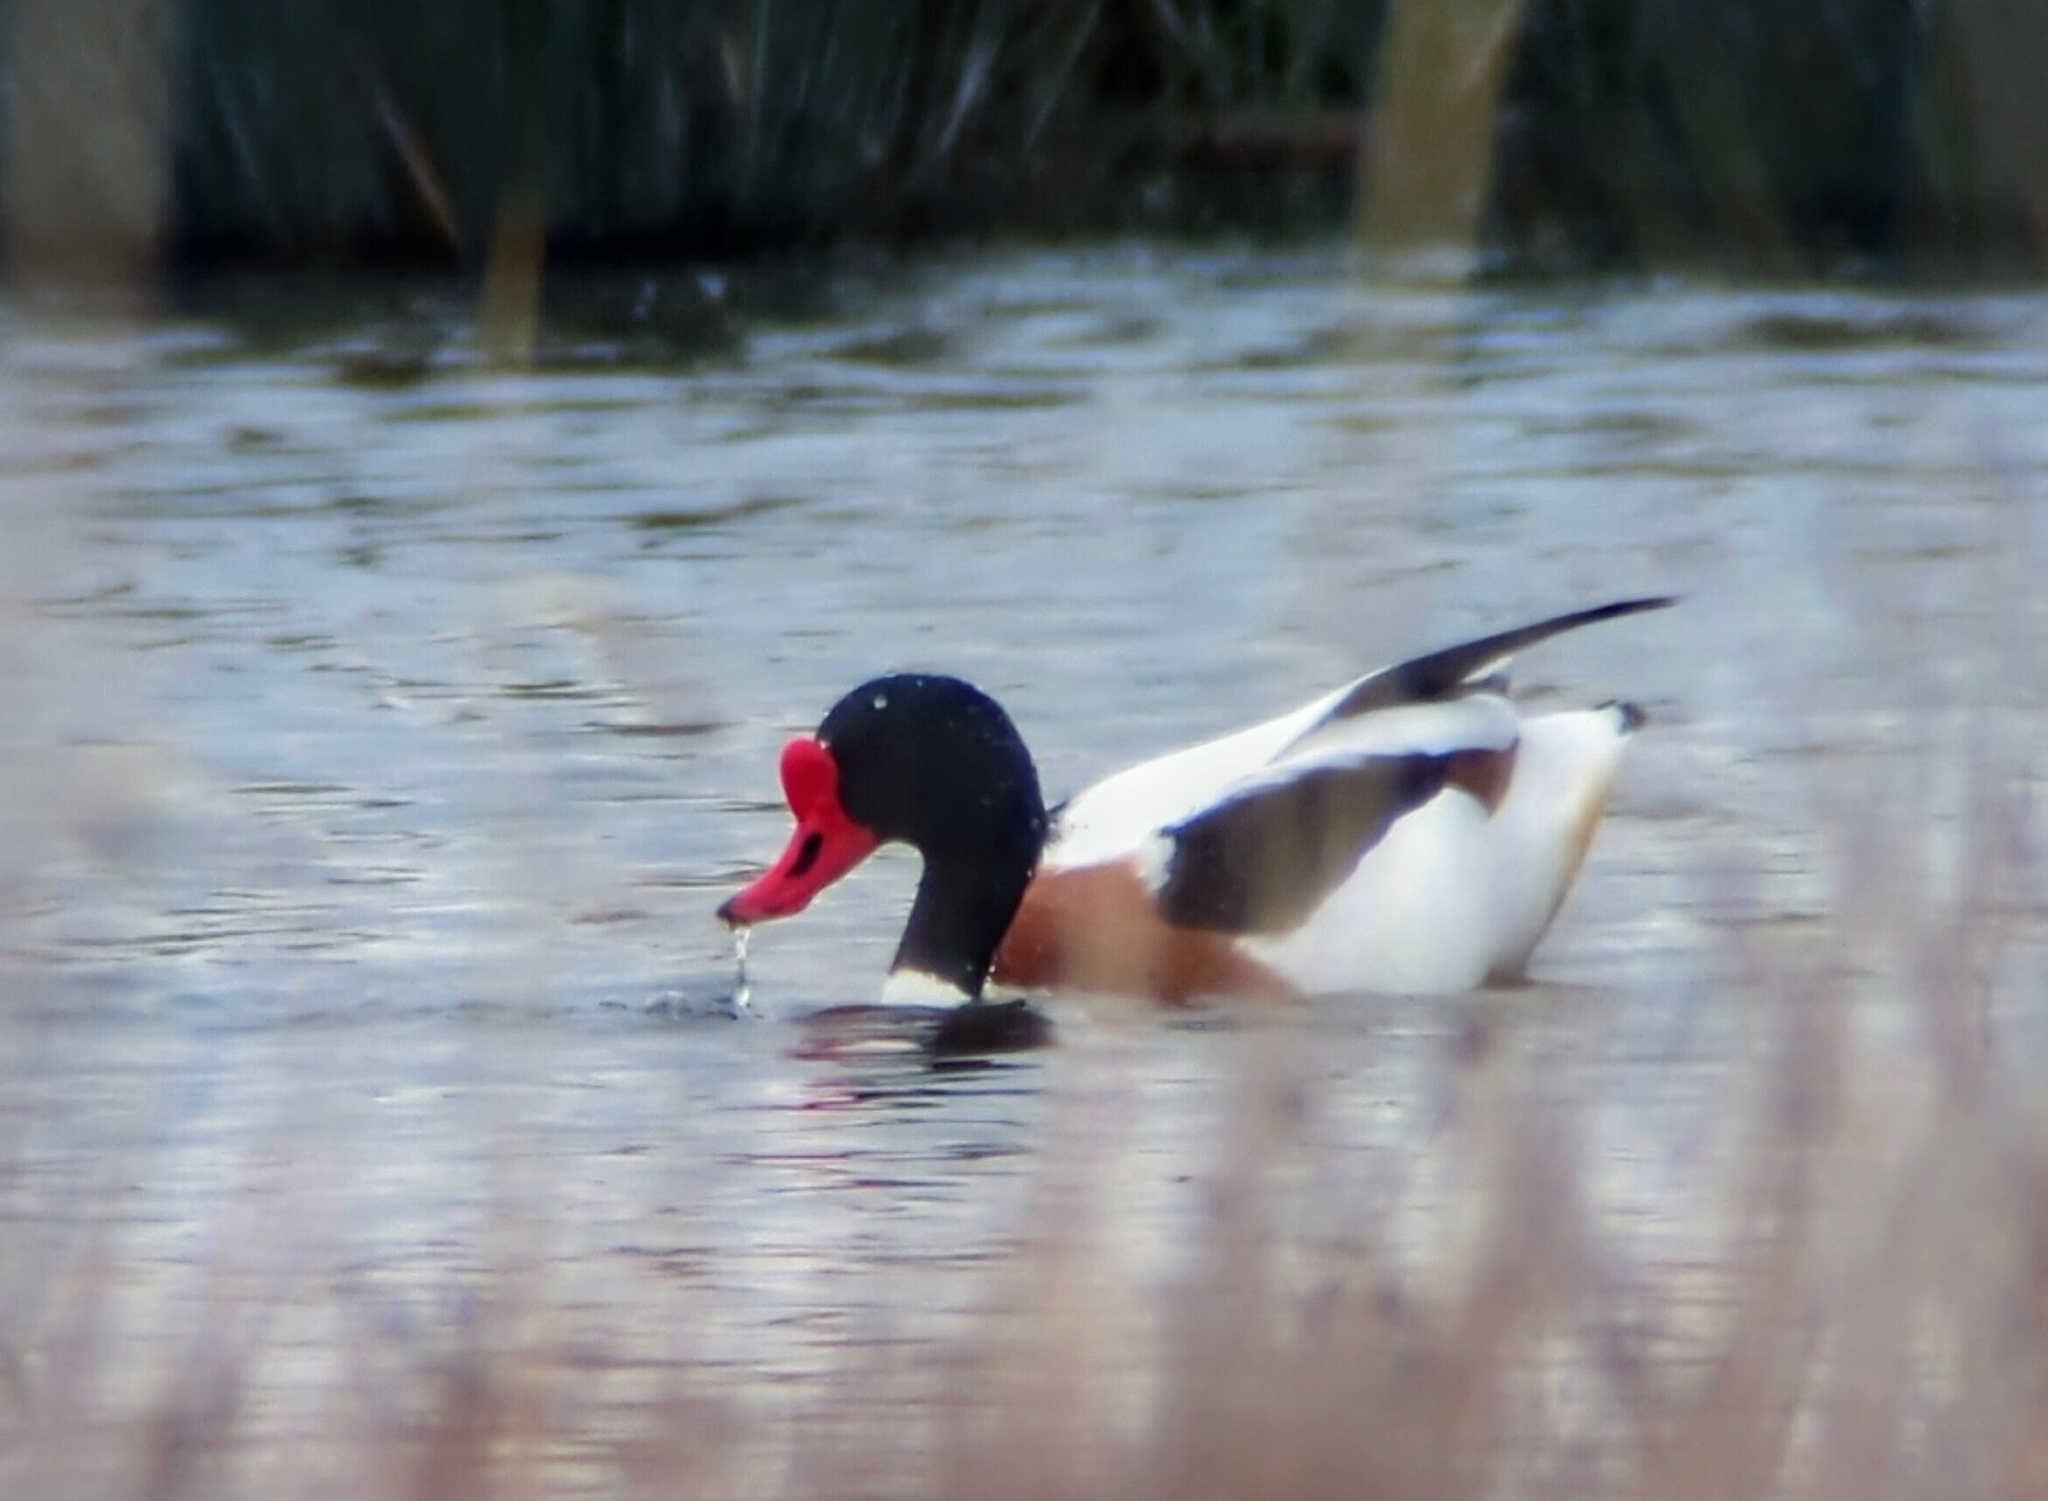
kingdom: Animalia
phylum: Chordata
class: Aves
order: Anseriformes
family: Anatidae
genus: Tadorna
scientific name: Tadorna tadorna
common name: Common shelduck
